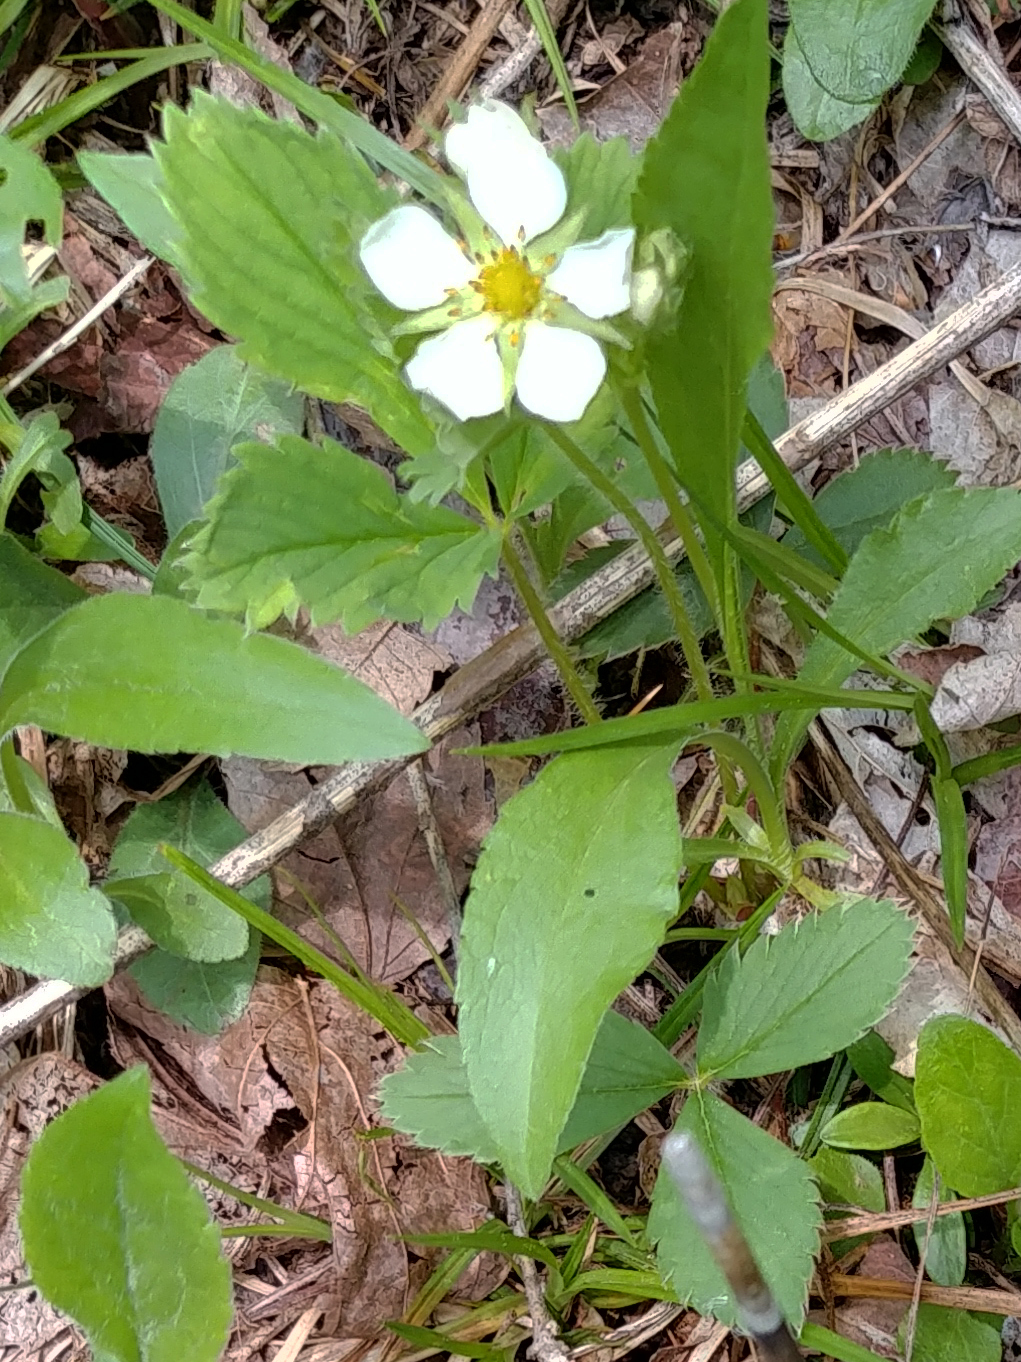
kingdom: Plantae
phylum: Tracheophyta
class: Magnoliopsida
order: Rosales
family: Rosaceae
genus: Fragaria
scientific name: Fragaria virginiana
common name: Thickleaved wild strawberry
